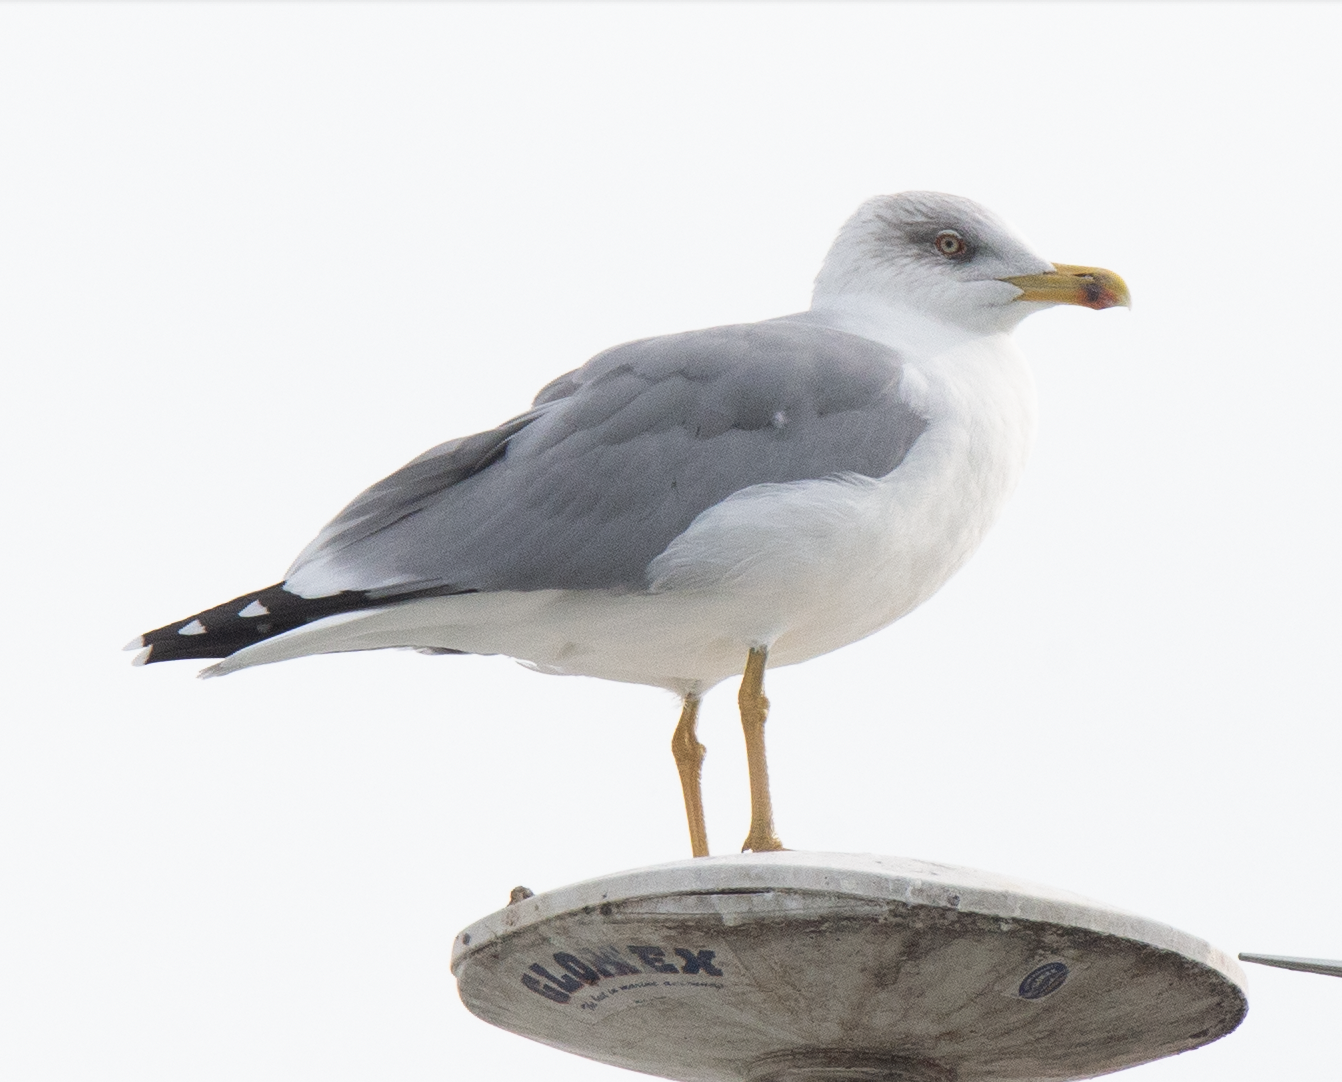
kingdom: Animalia
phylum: Chordata
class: Aves
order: Charadriiformes
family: Laridae
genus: Larus
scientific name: Larus michahellis
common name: Yellow-legged gull
